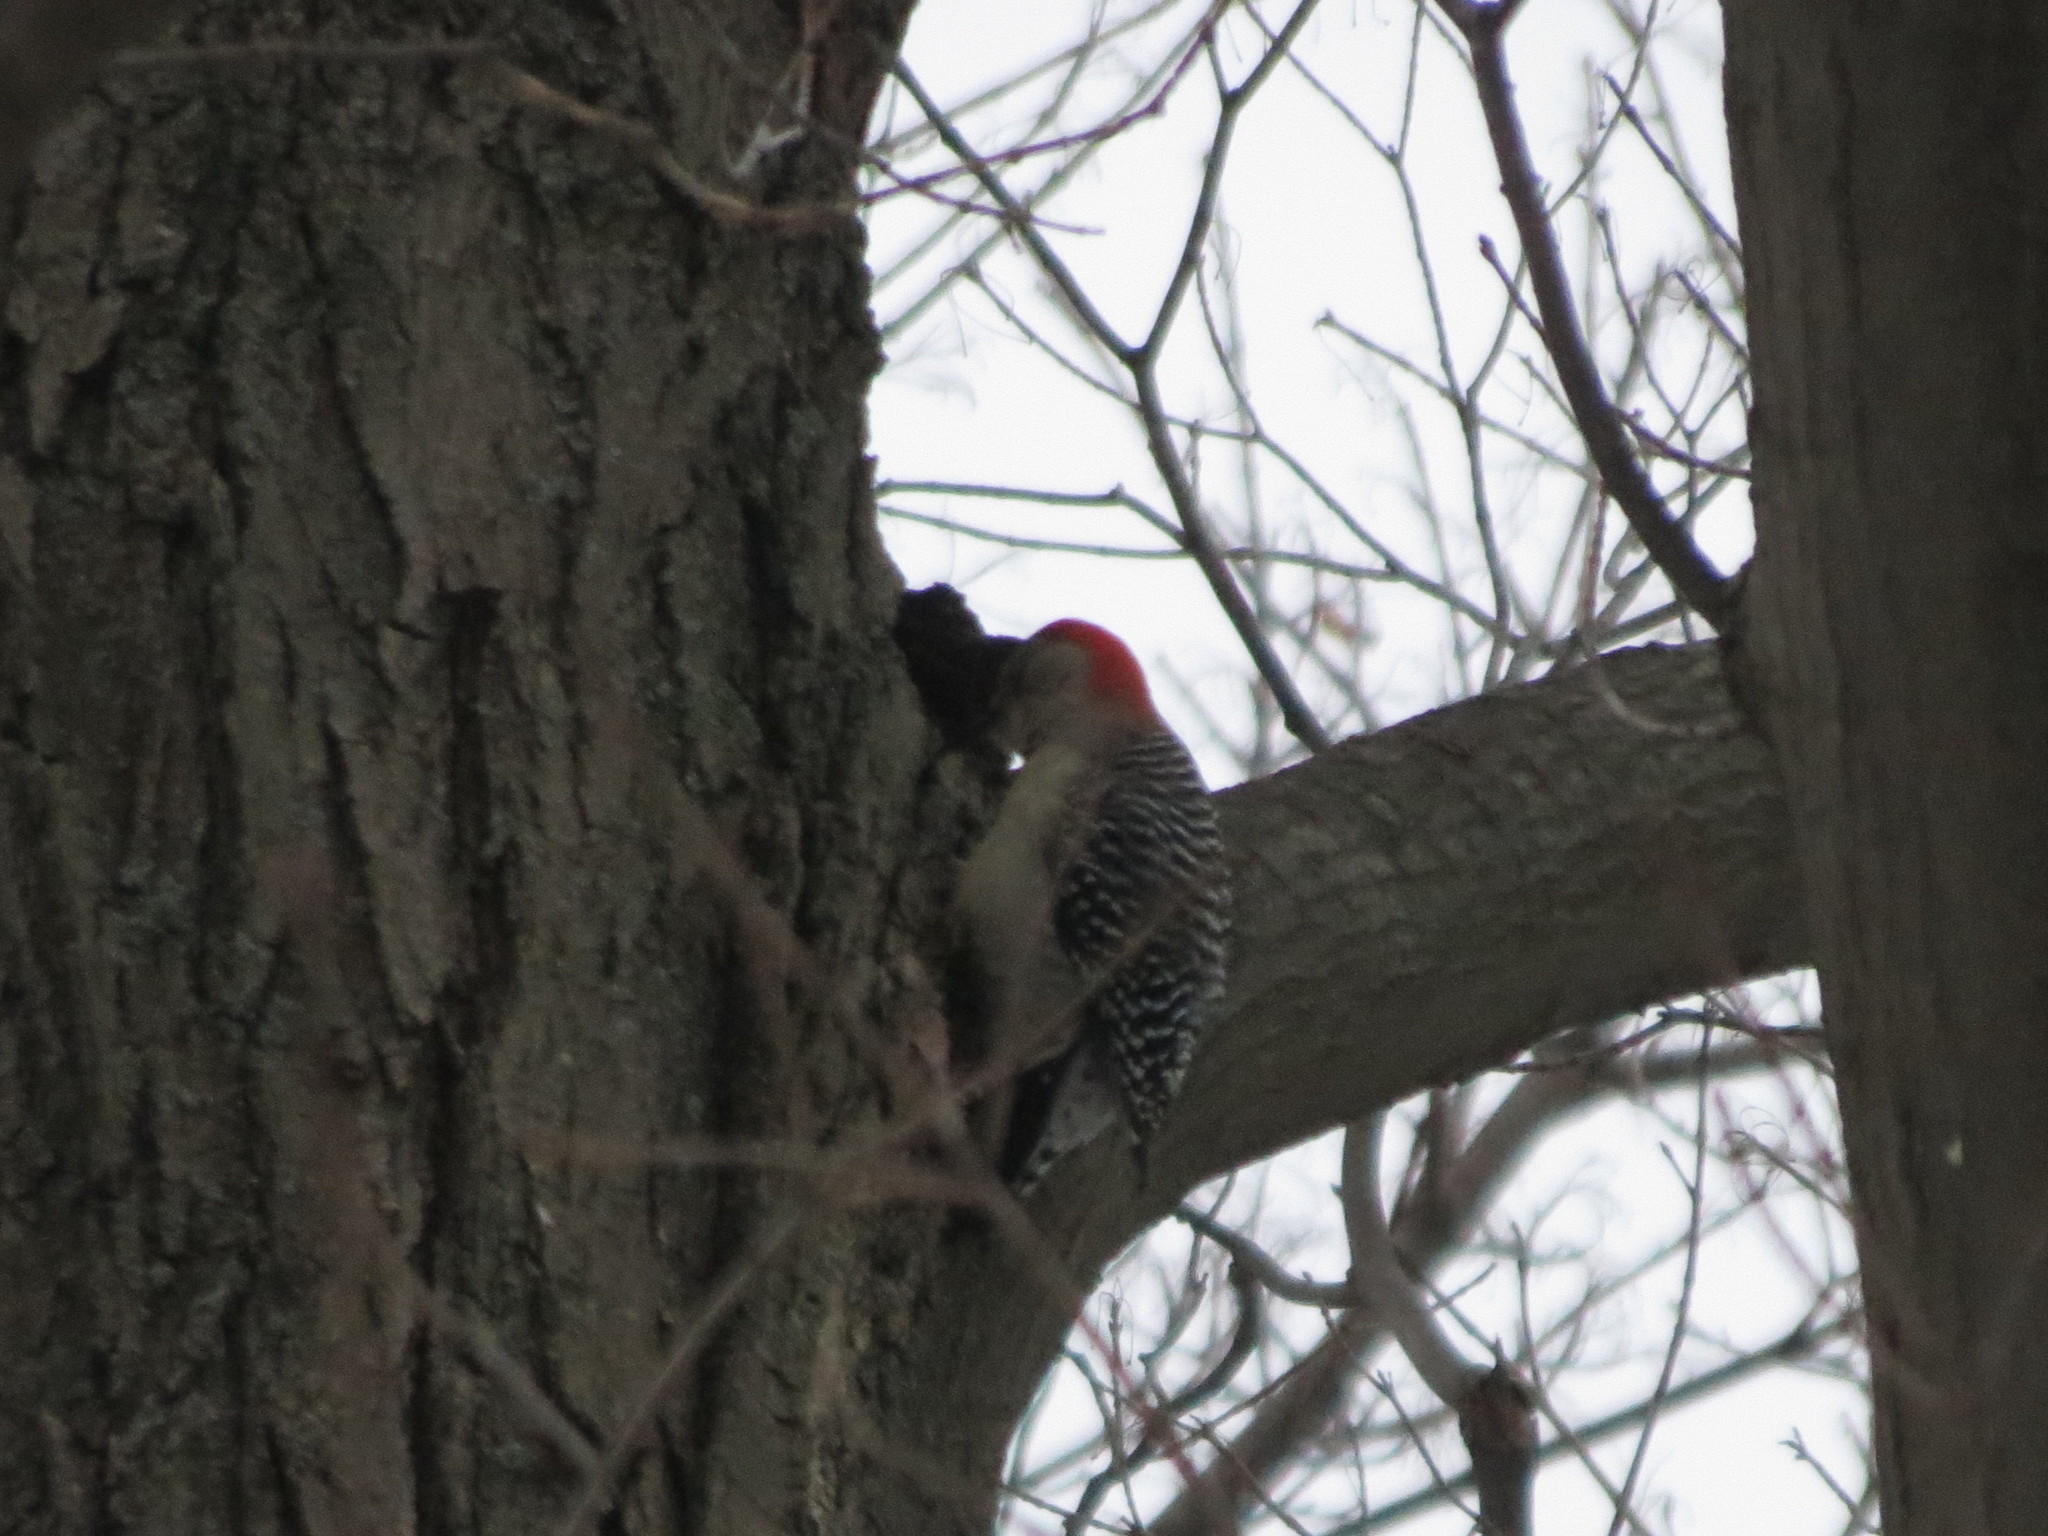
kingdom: Animalia
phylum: Chordata
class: Aves
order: Piciformes
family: Picidae
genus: Melanerpes
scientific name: Melanerpes carolinus
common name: Red-bellied woodpecker
